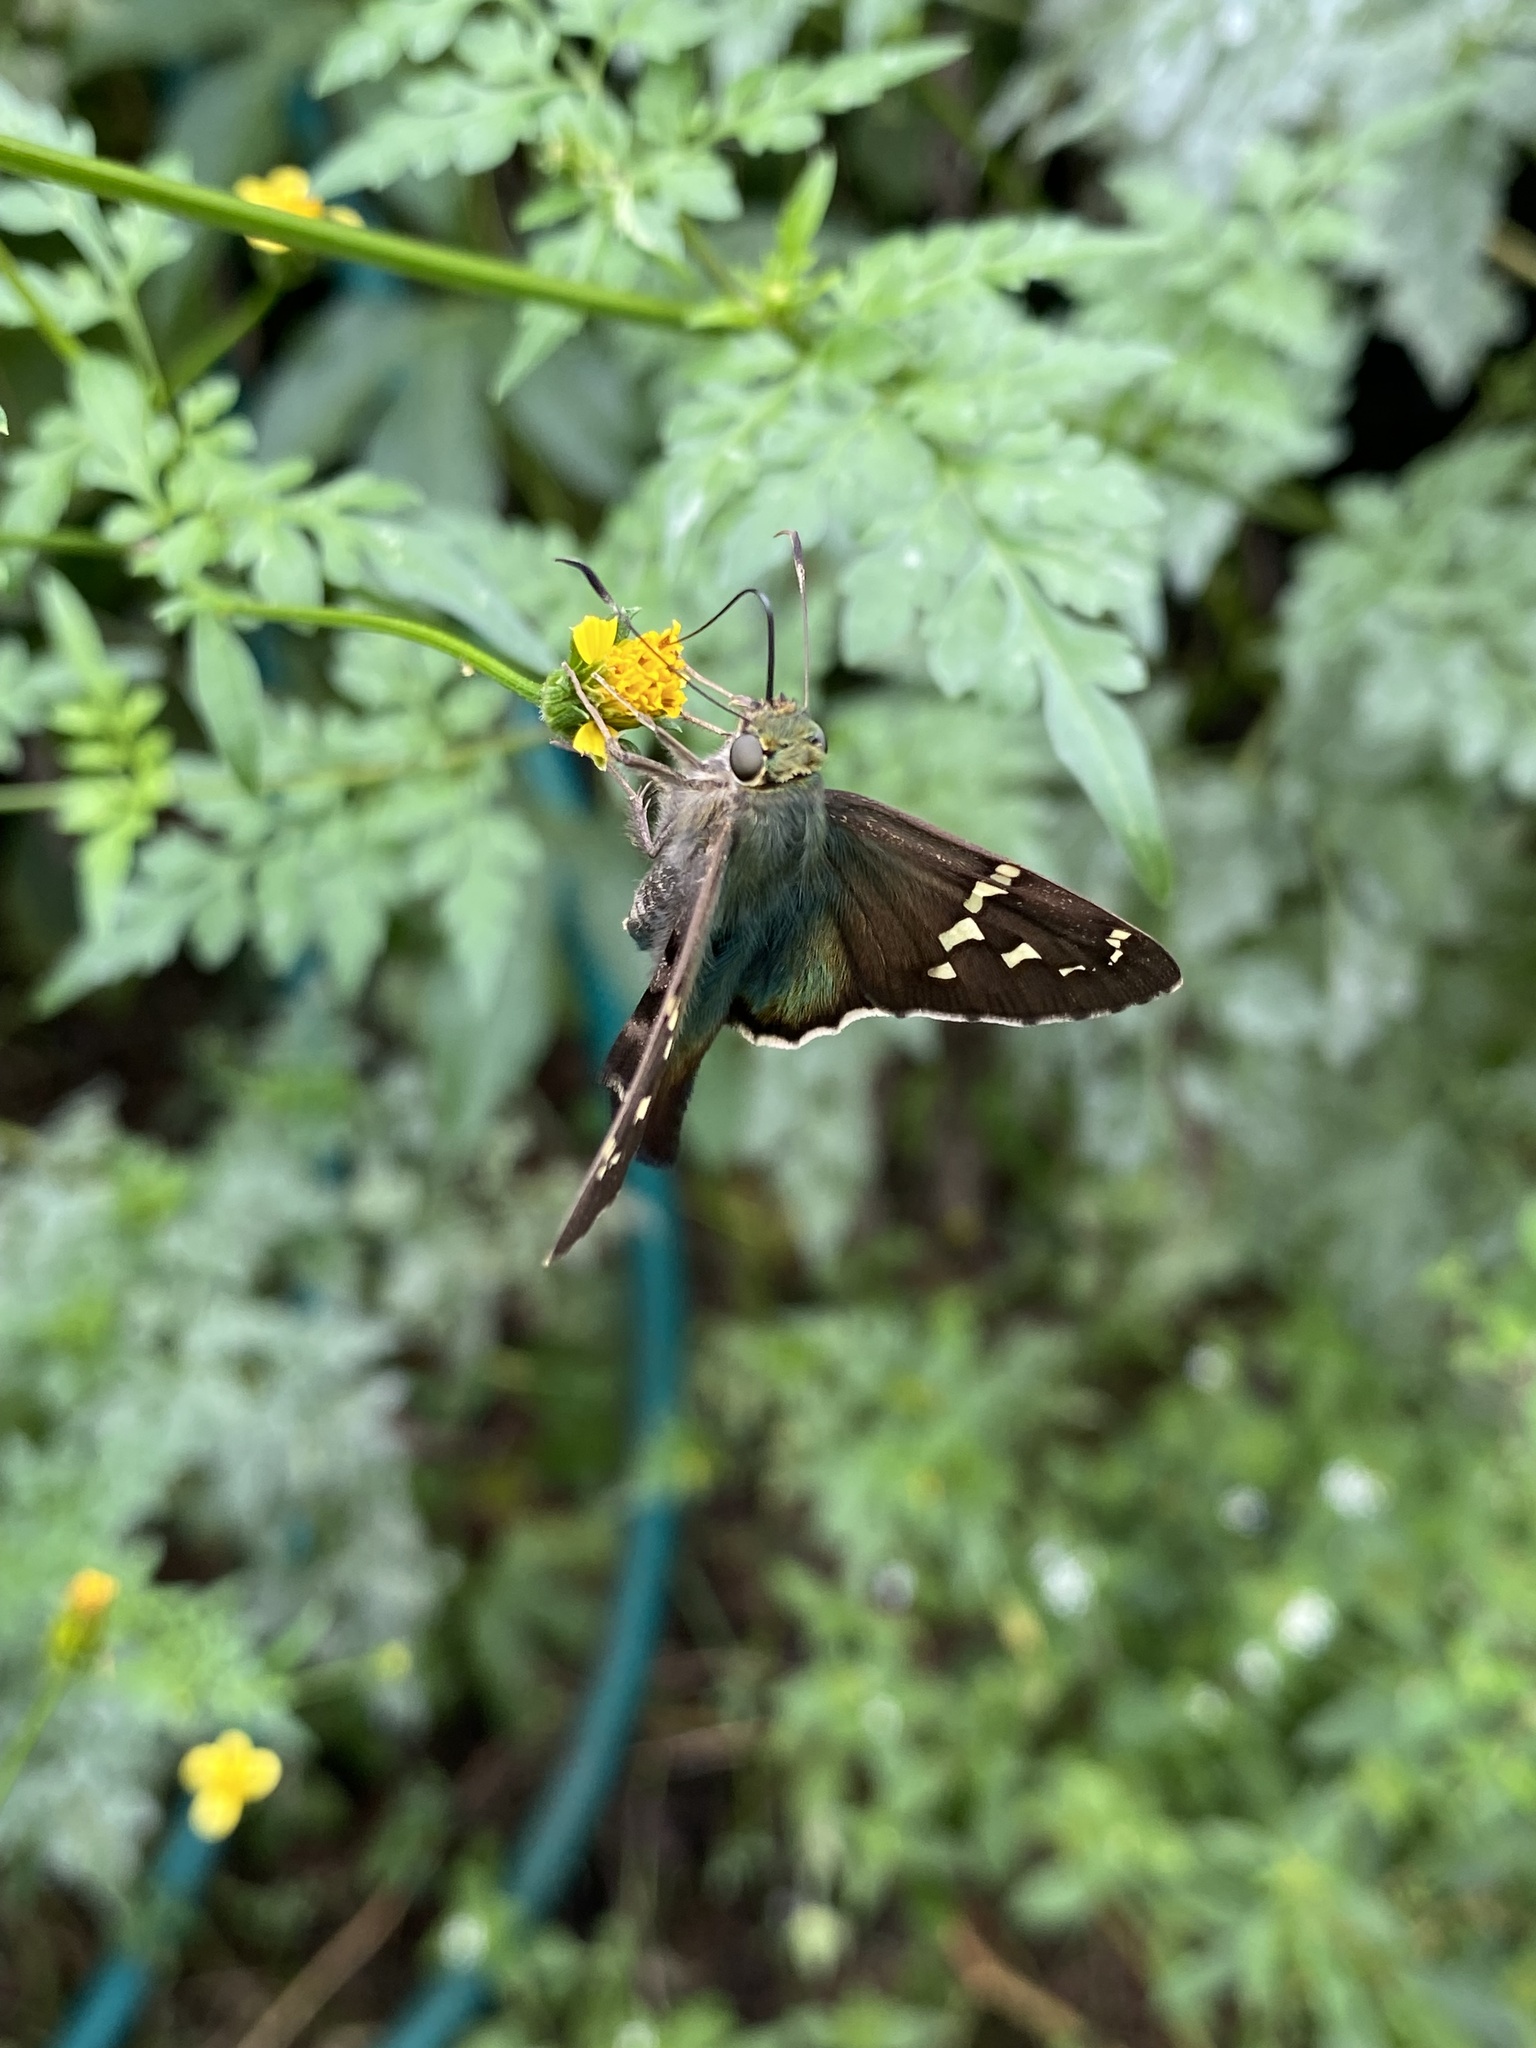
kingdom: Animalia
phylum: Arthropoda
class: Insecta
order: Lepidoptera
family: Hesperiidae
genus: Urbanus
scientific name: Urbanus proteus
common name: Long-tailed skipper
